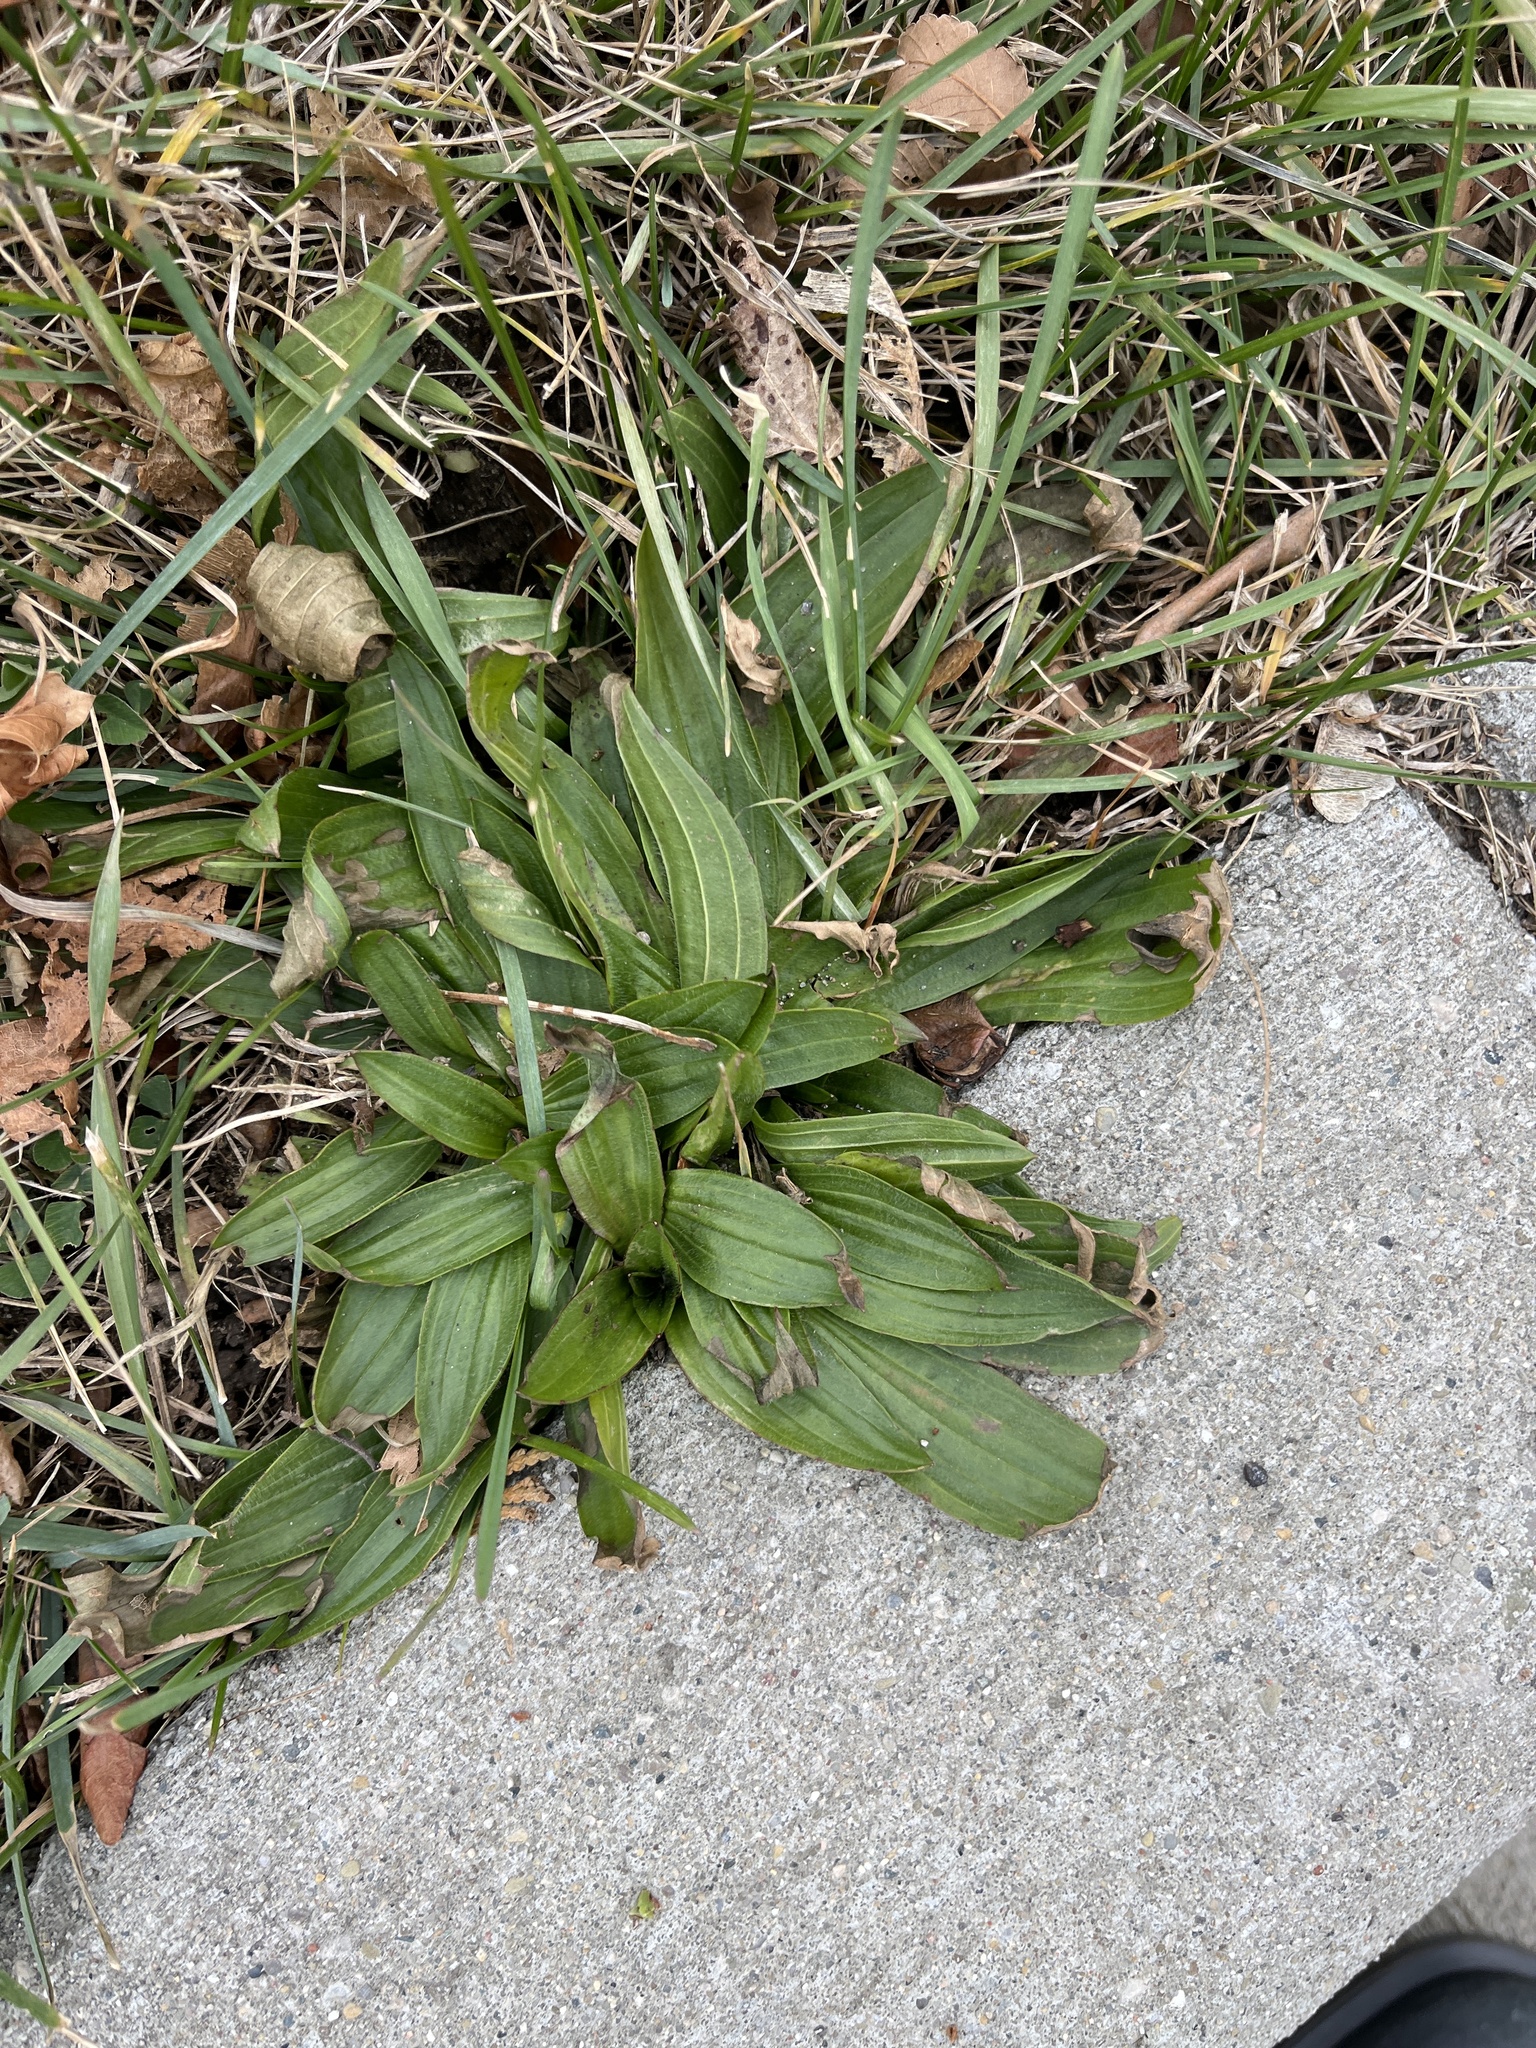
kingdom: Plantae
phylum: Tracheophyta
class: Magnoliopsida
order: Lamiales
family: Plantaginaceae
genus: Plantago
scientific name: Plantago lanceolata
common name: Ribwort plantain
